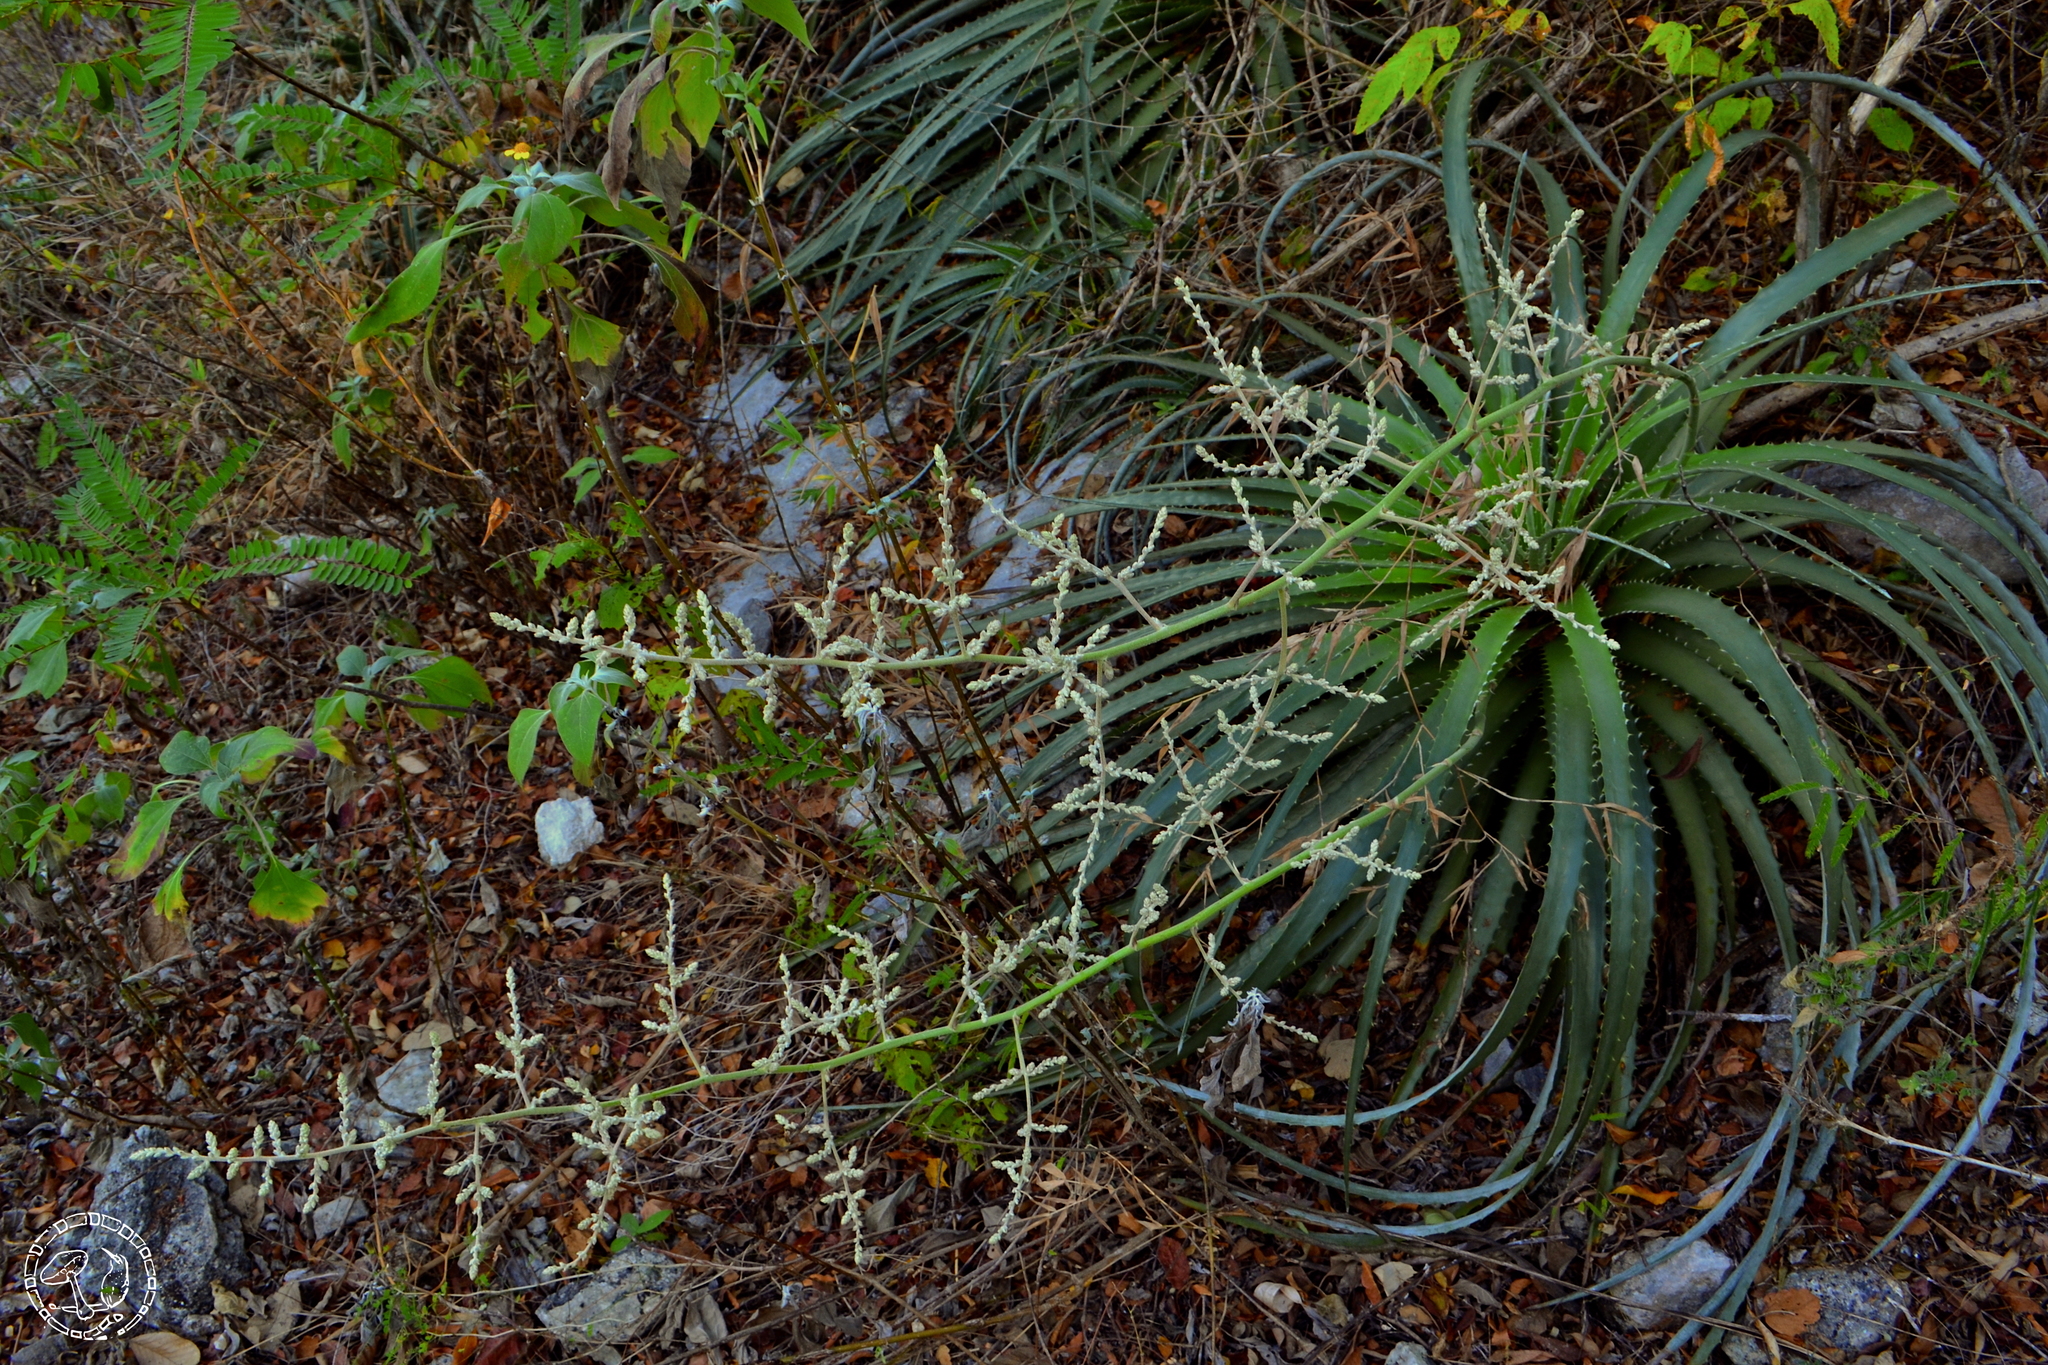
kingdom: Plantae
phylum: Tracheophyta
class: Liliopsida
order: Poales
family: Bromeliaceae
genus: Hechtia
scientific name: Hechtia glomerata
